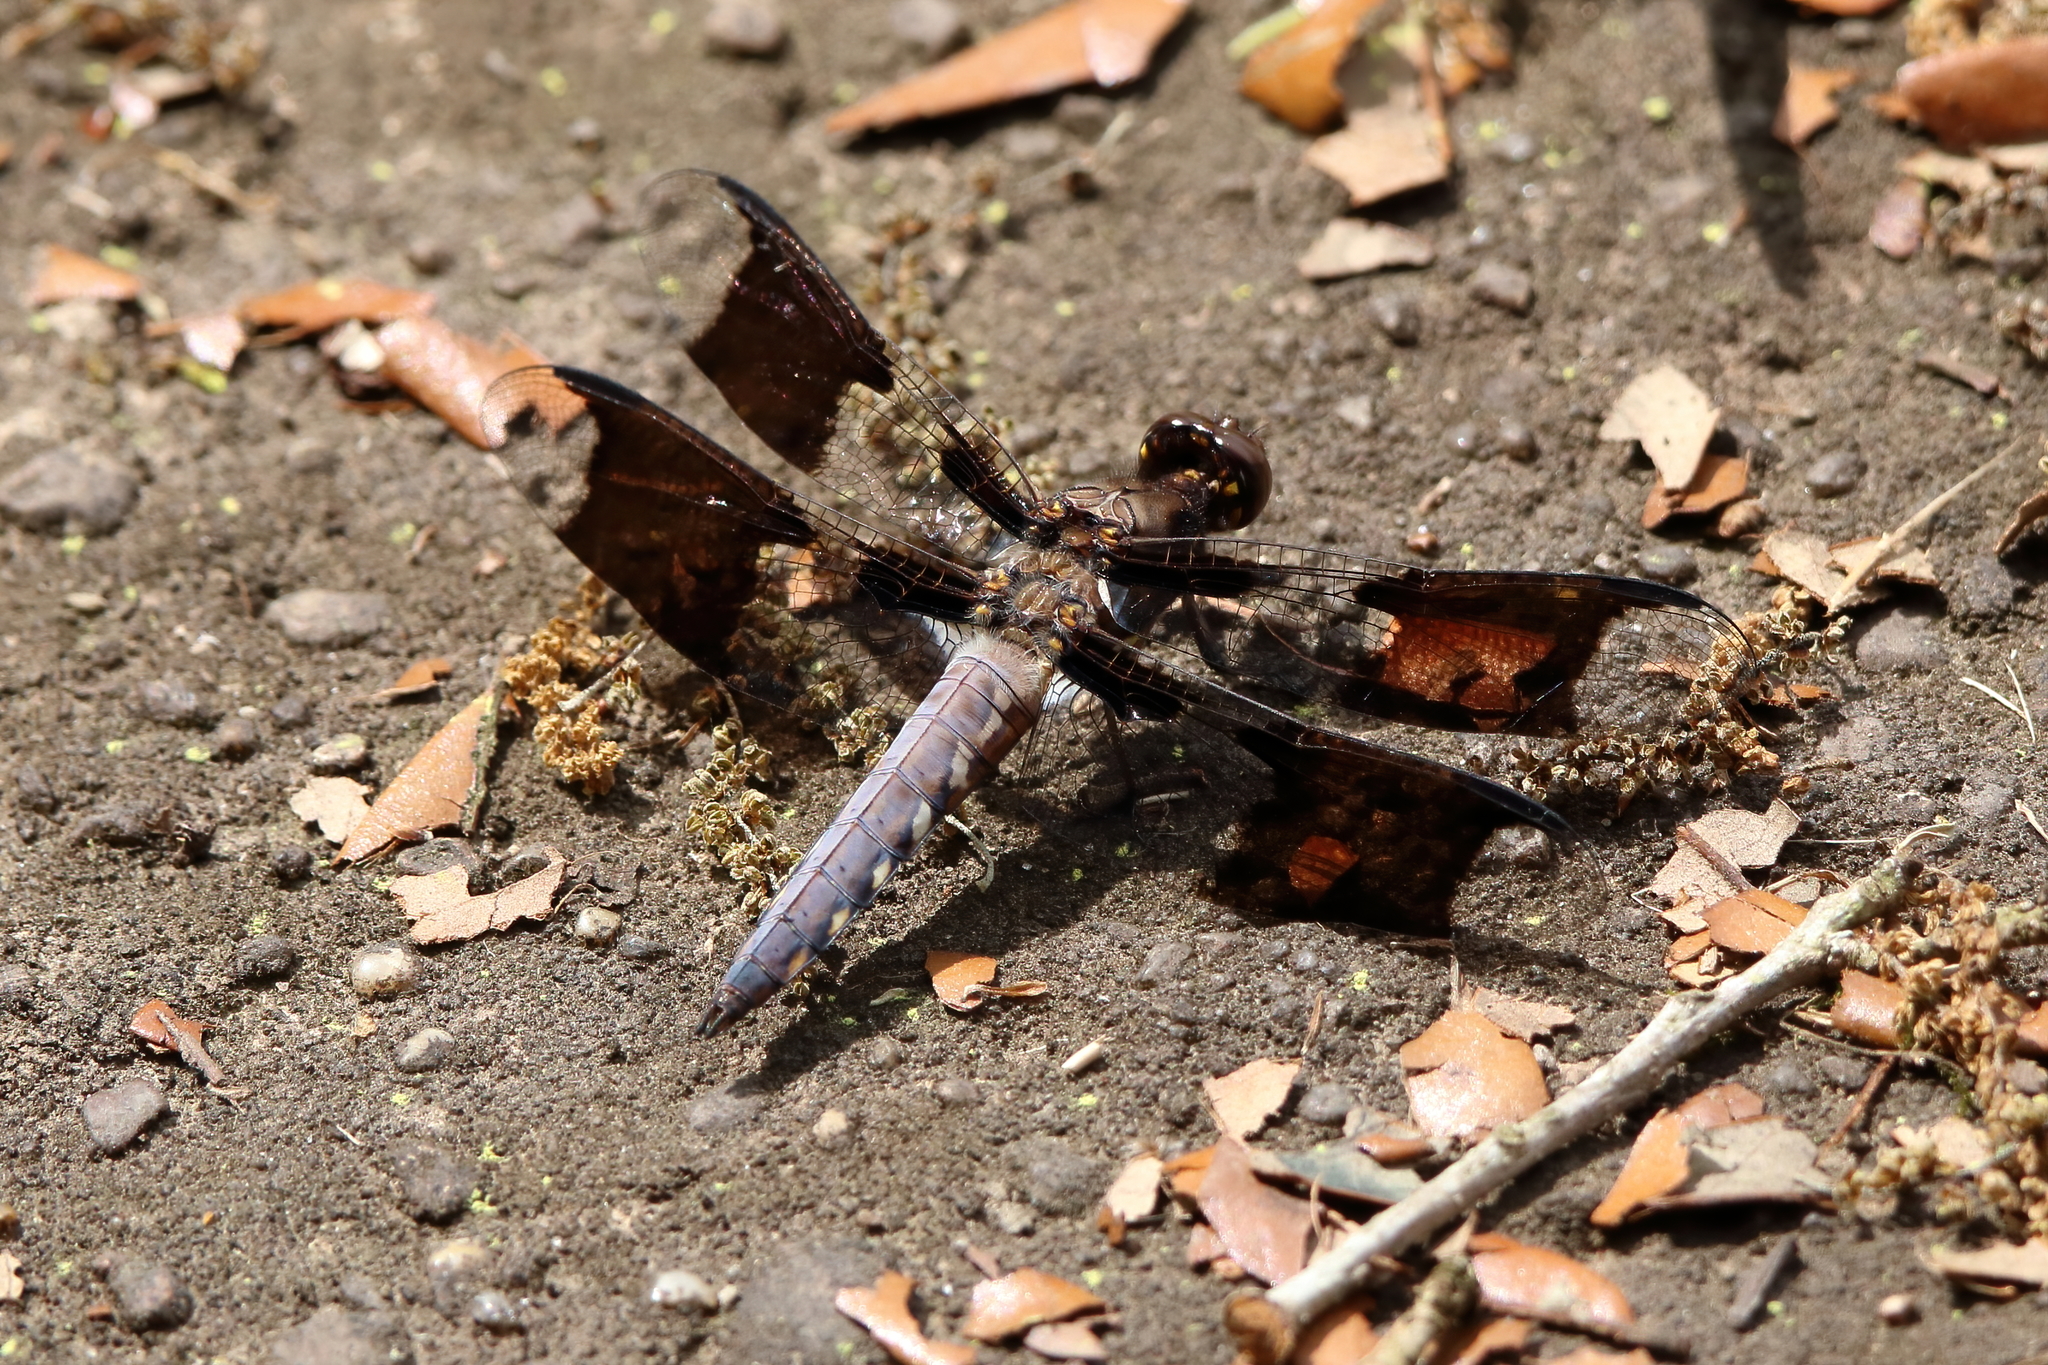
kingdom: Animalia
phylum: Arthropoda
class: Insecta
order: Odonata
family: Libellulidae
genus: Plathemis
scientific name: Plathemis lydia
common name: Common whitetail
